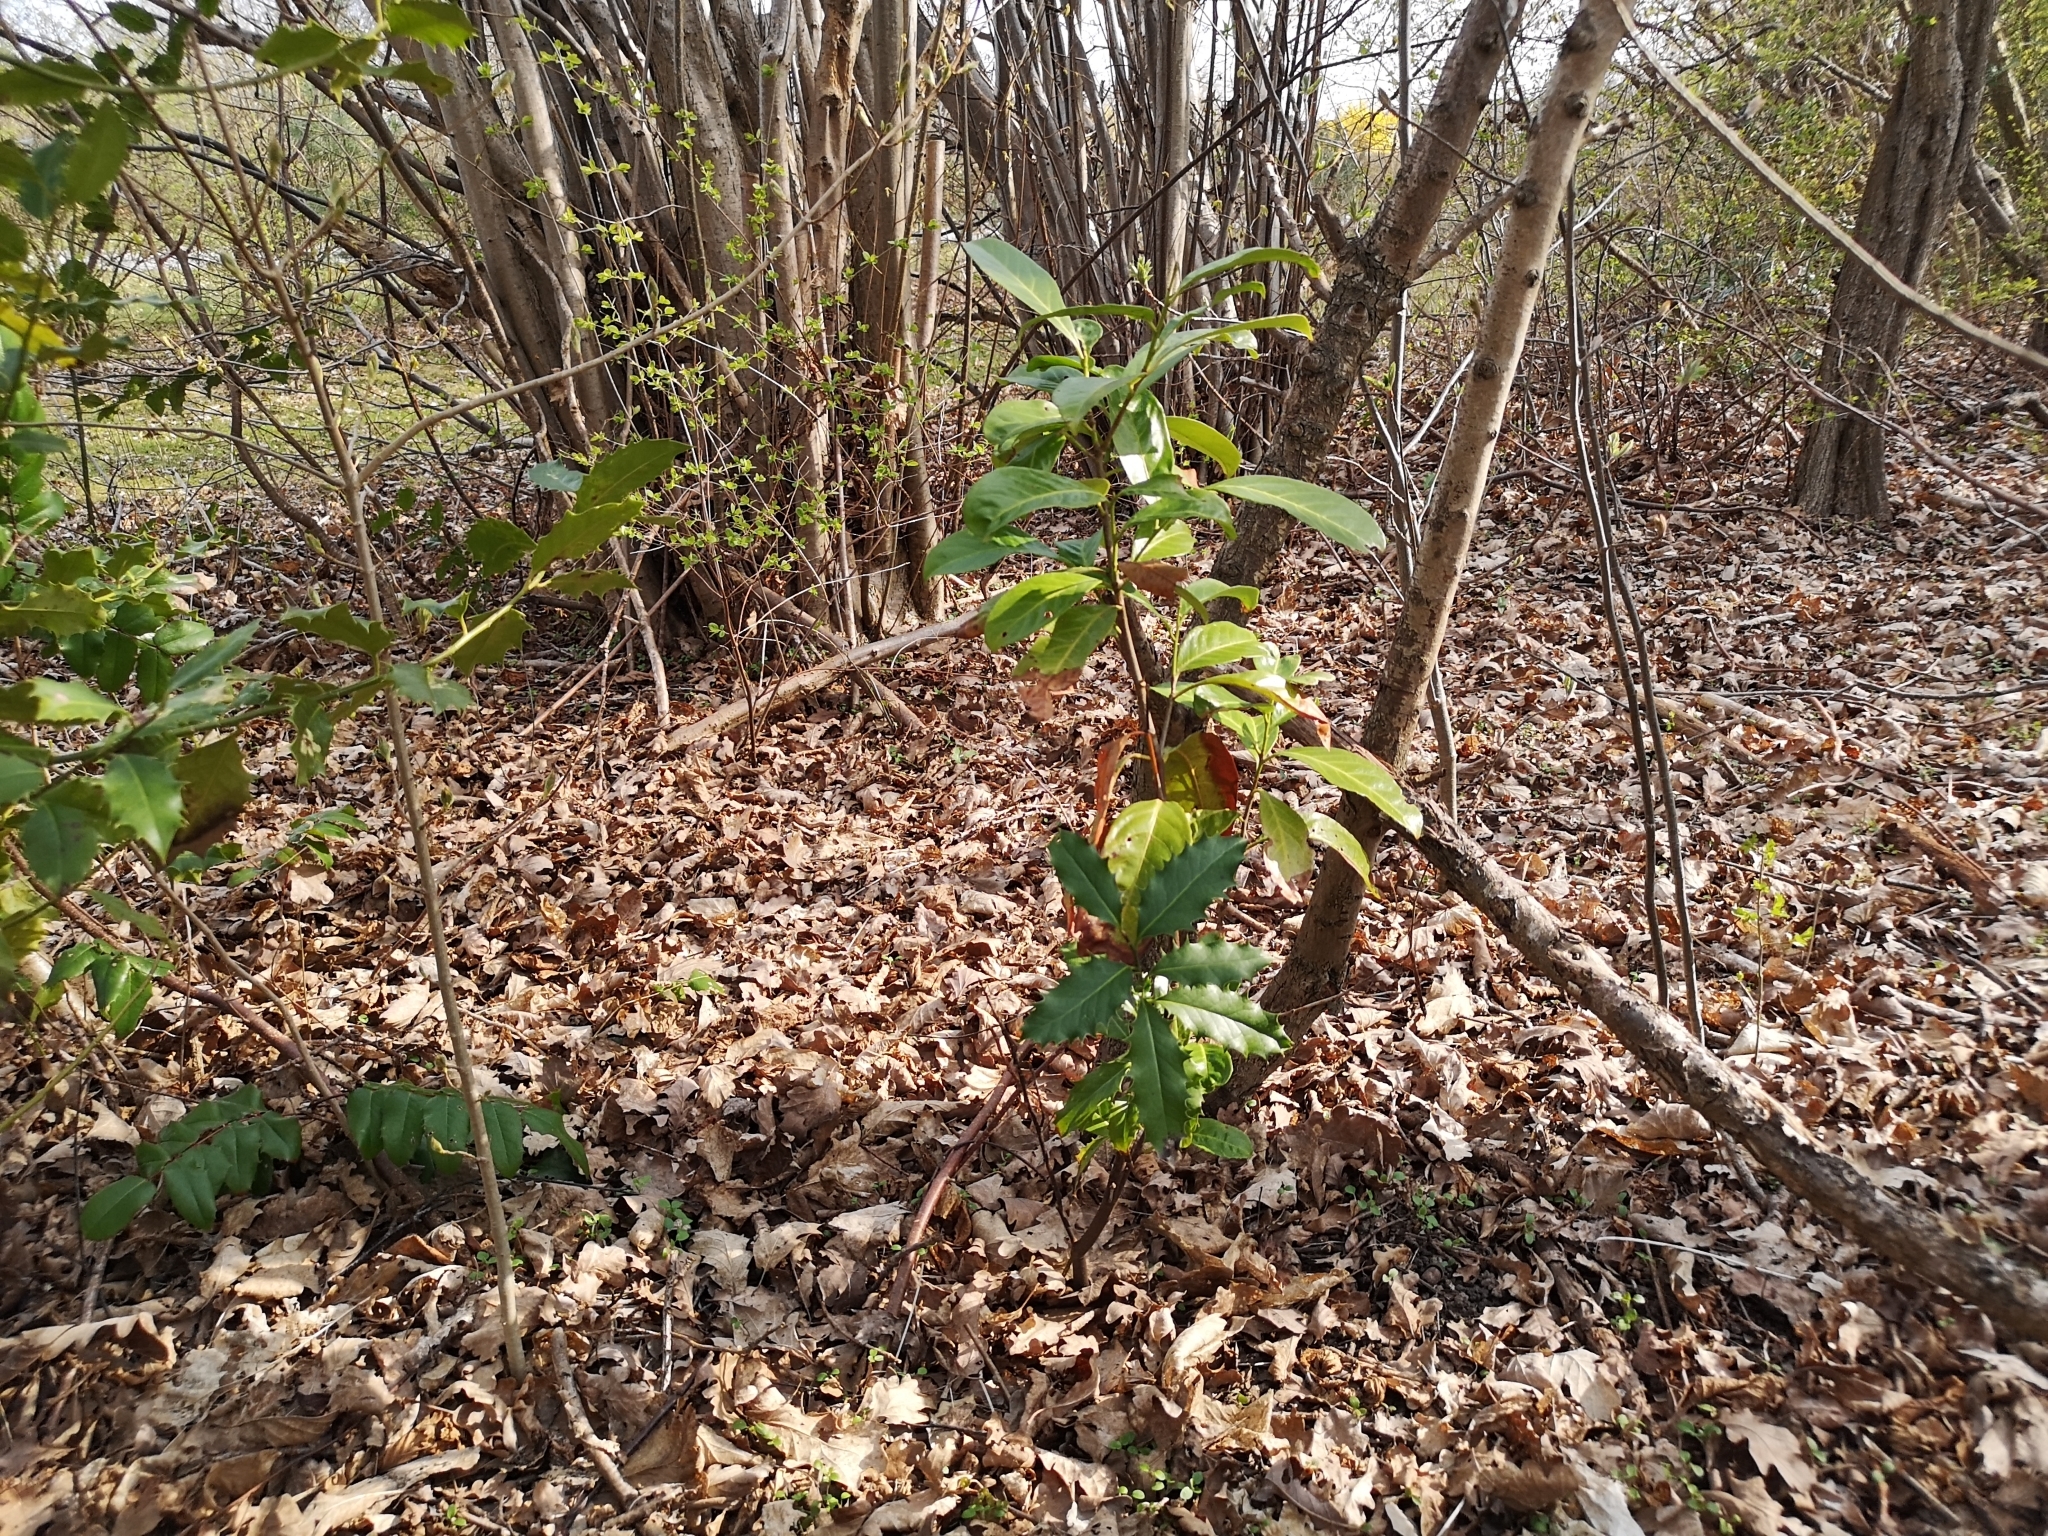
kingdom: Plantae
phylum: Tracheophyta
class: Magnoliopsida
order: Rosales
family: Rosaceae
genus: Prunus
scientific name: Prunus laurocerasus
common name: Cherry laurel
